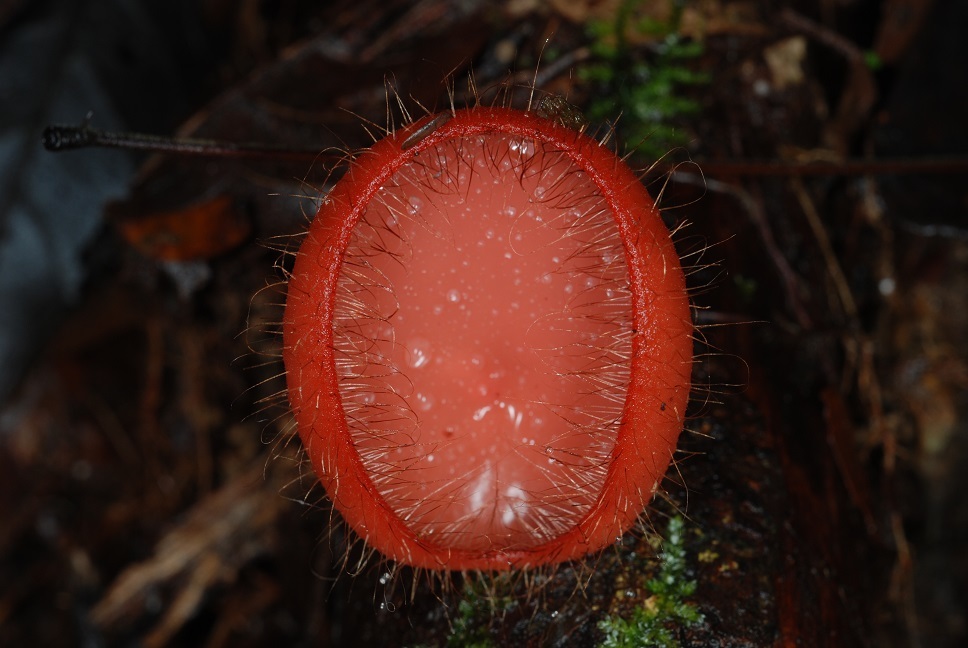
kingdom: Fungi
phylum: Ascomycota
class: Pezizomycetes
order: Pezizales
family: Sarcoscyphaceae
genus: Cookeina
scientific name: Cookeina tricholoma
